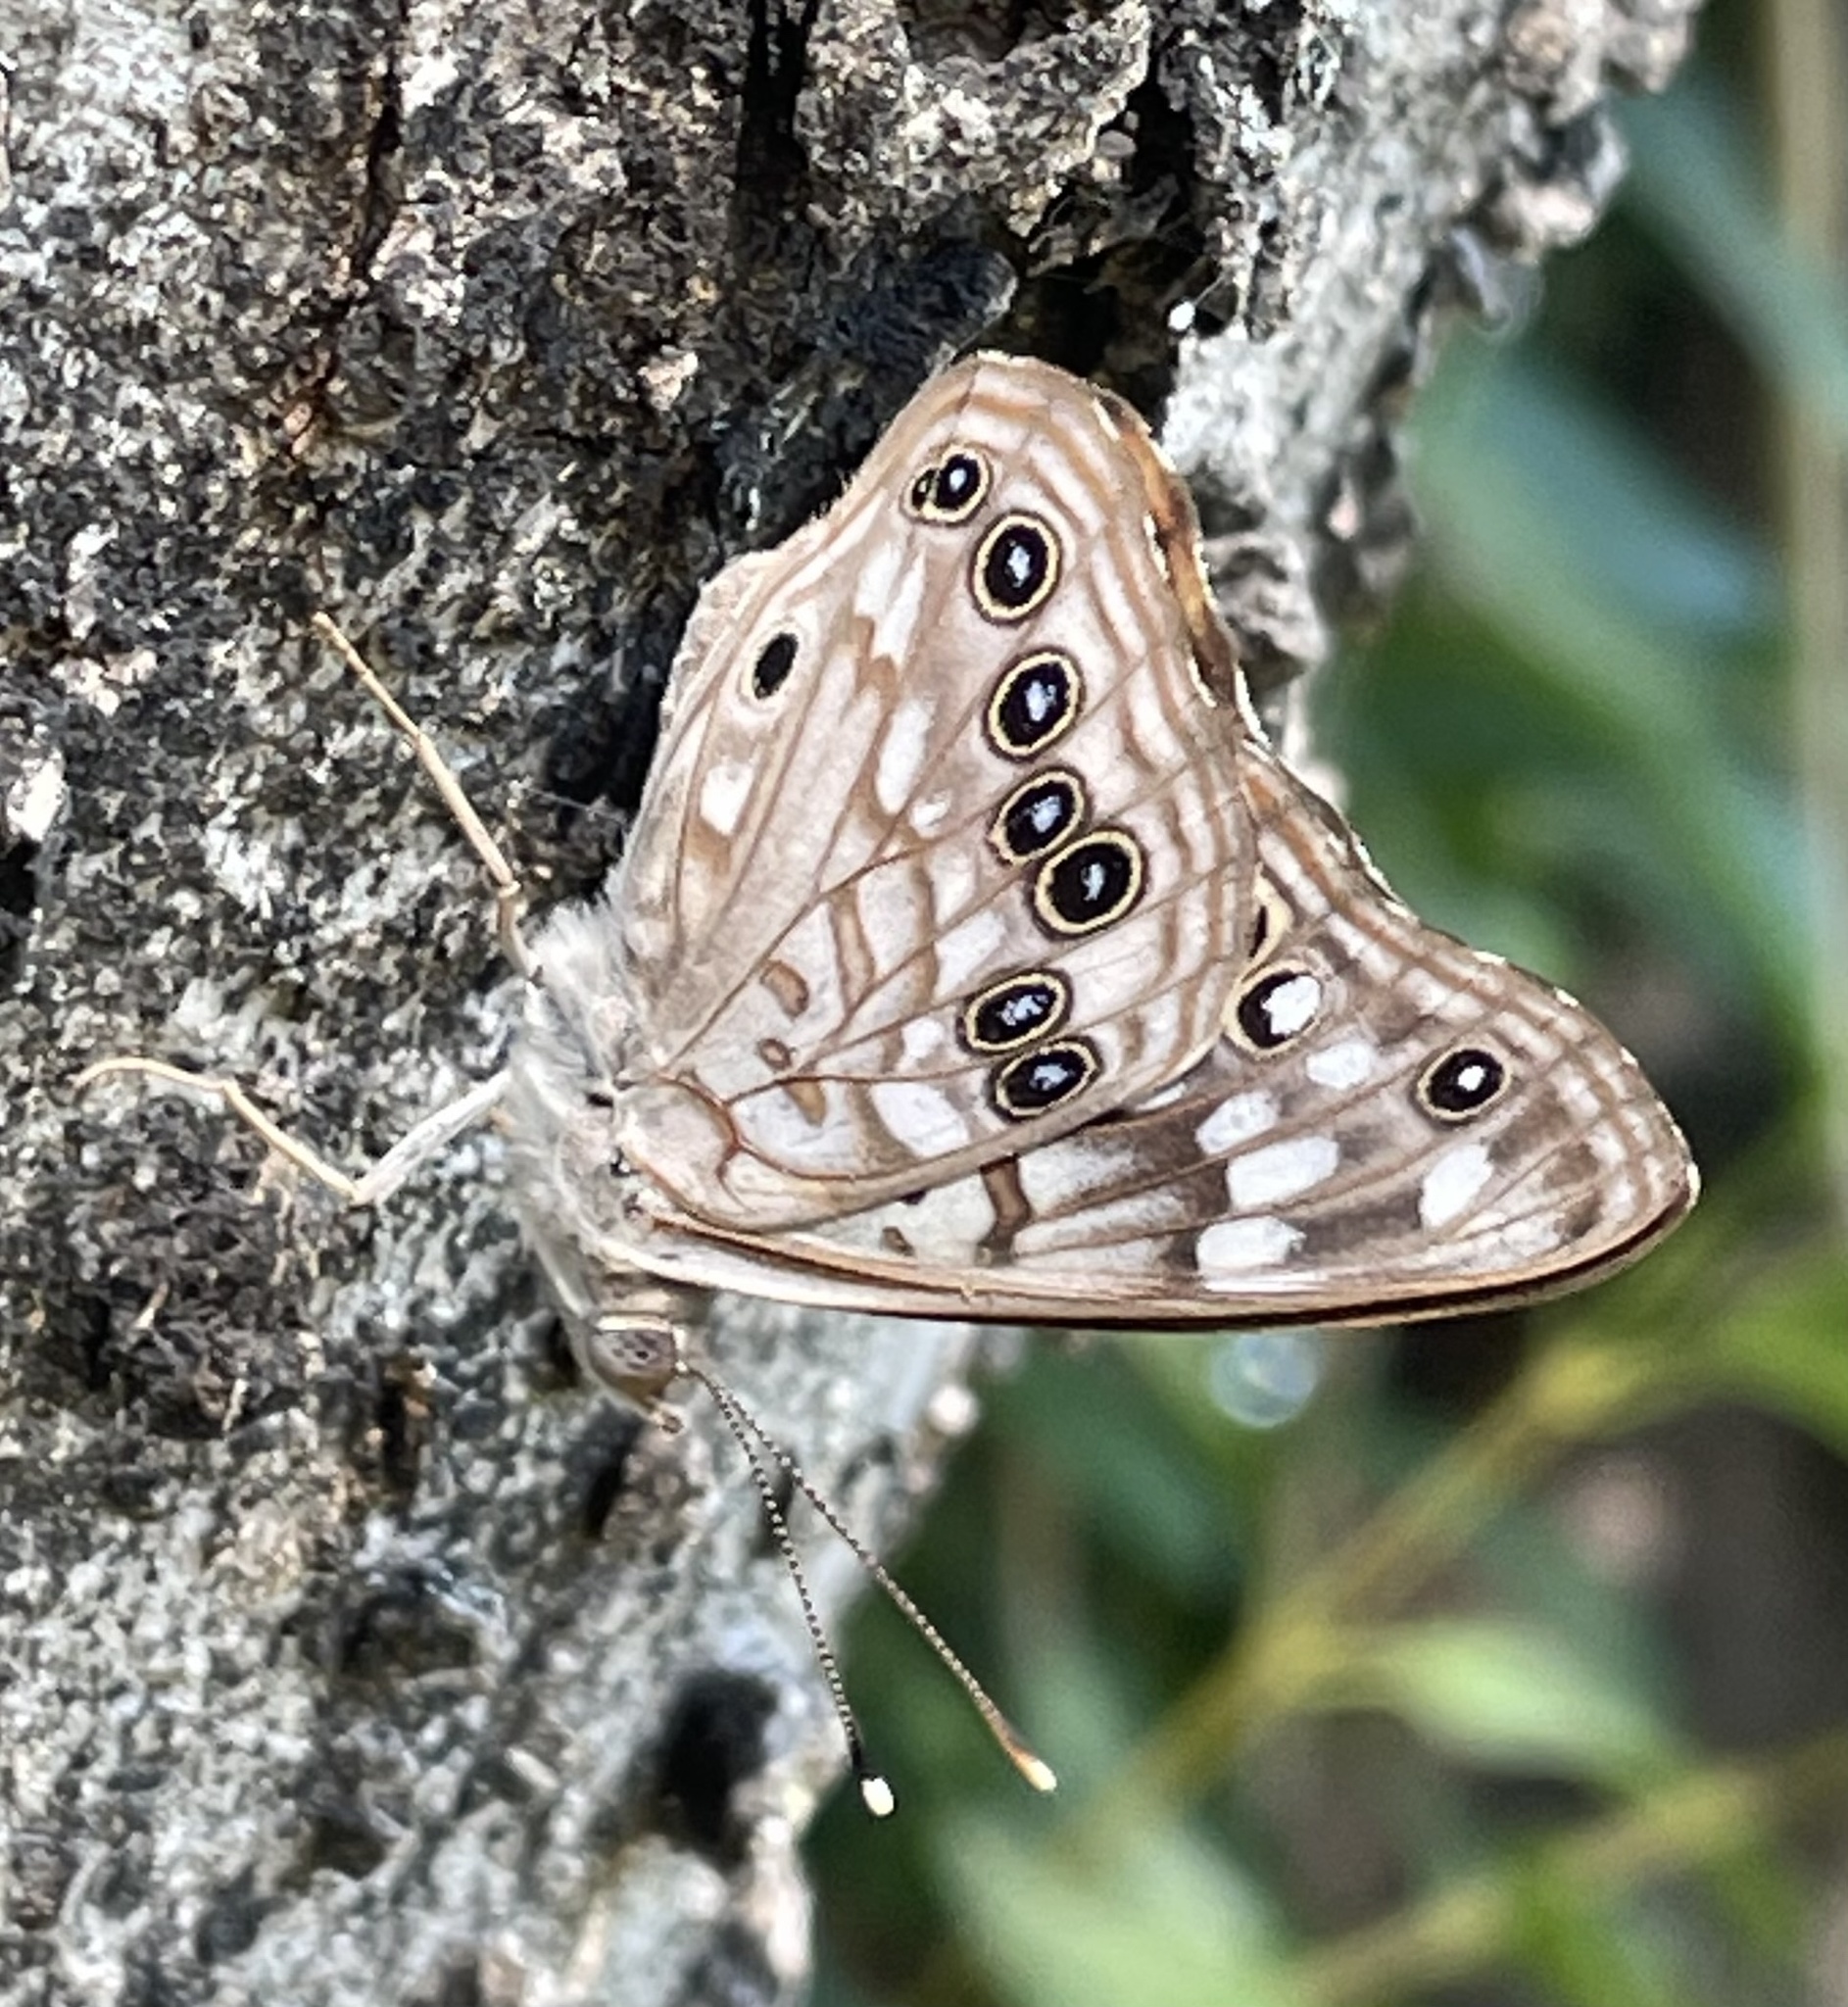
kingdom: Animalia
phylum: Arthropoda
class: Insecta
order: Lepidoptera
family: Nymphalidae
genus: Asterocampa
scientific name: Asterocampa celtis
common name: Hackberry emperor
